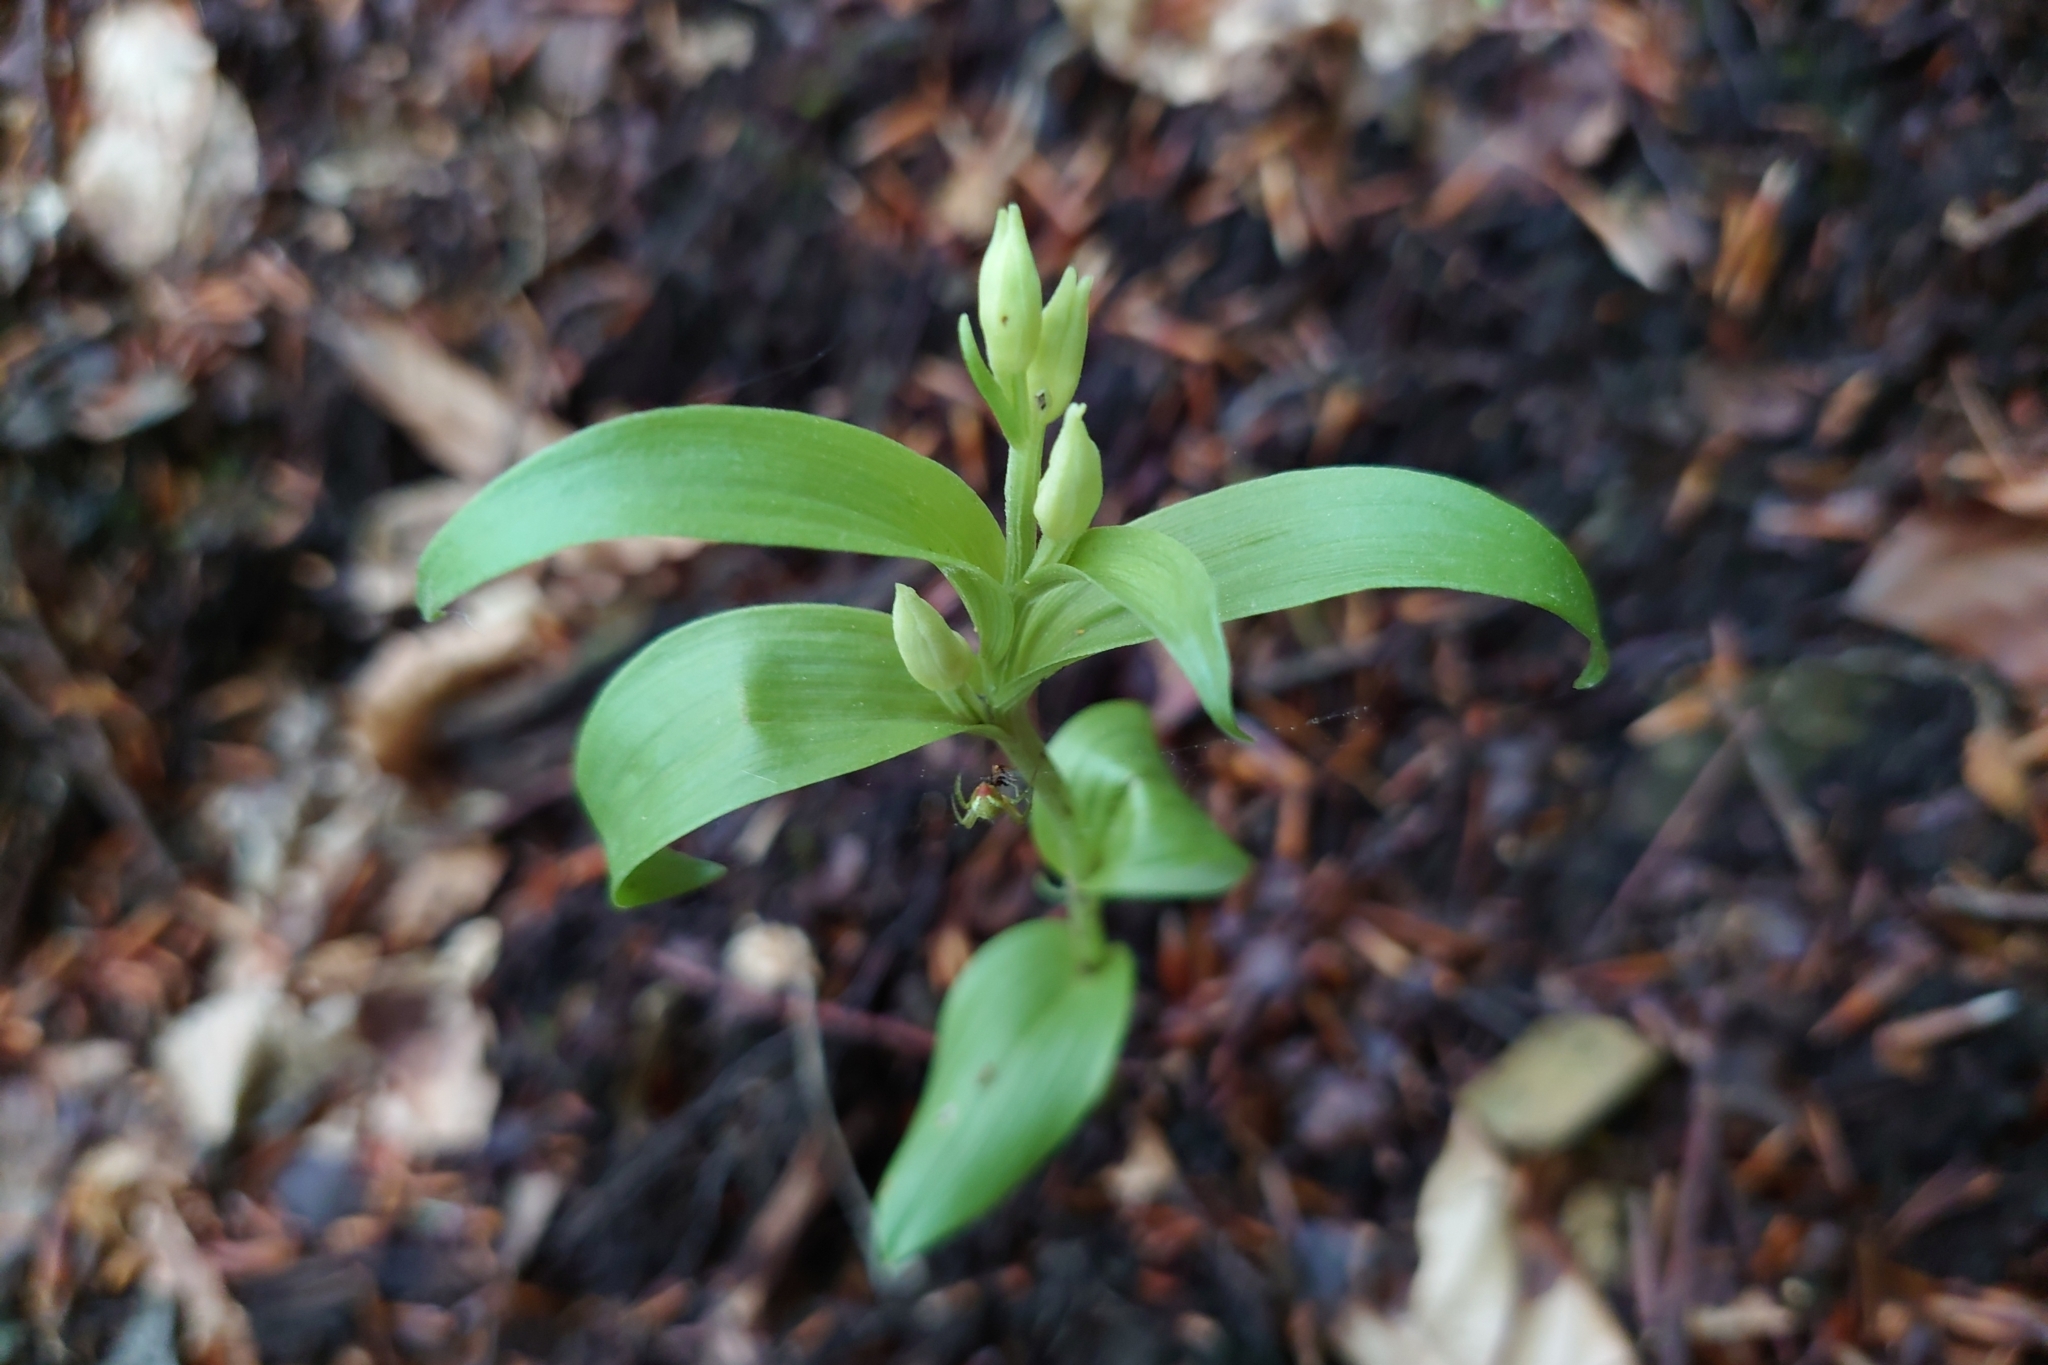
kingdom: Plantae
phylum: Tracheophyta
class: Liliopsida
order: Asparagales
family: Orchidaceae
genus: Cephalanthera
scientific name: Cephalanthera damasonium
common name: White helleborine
